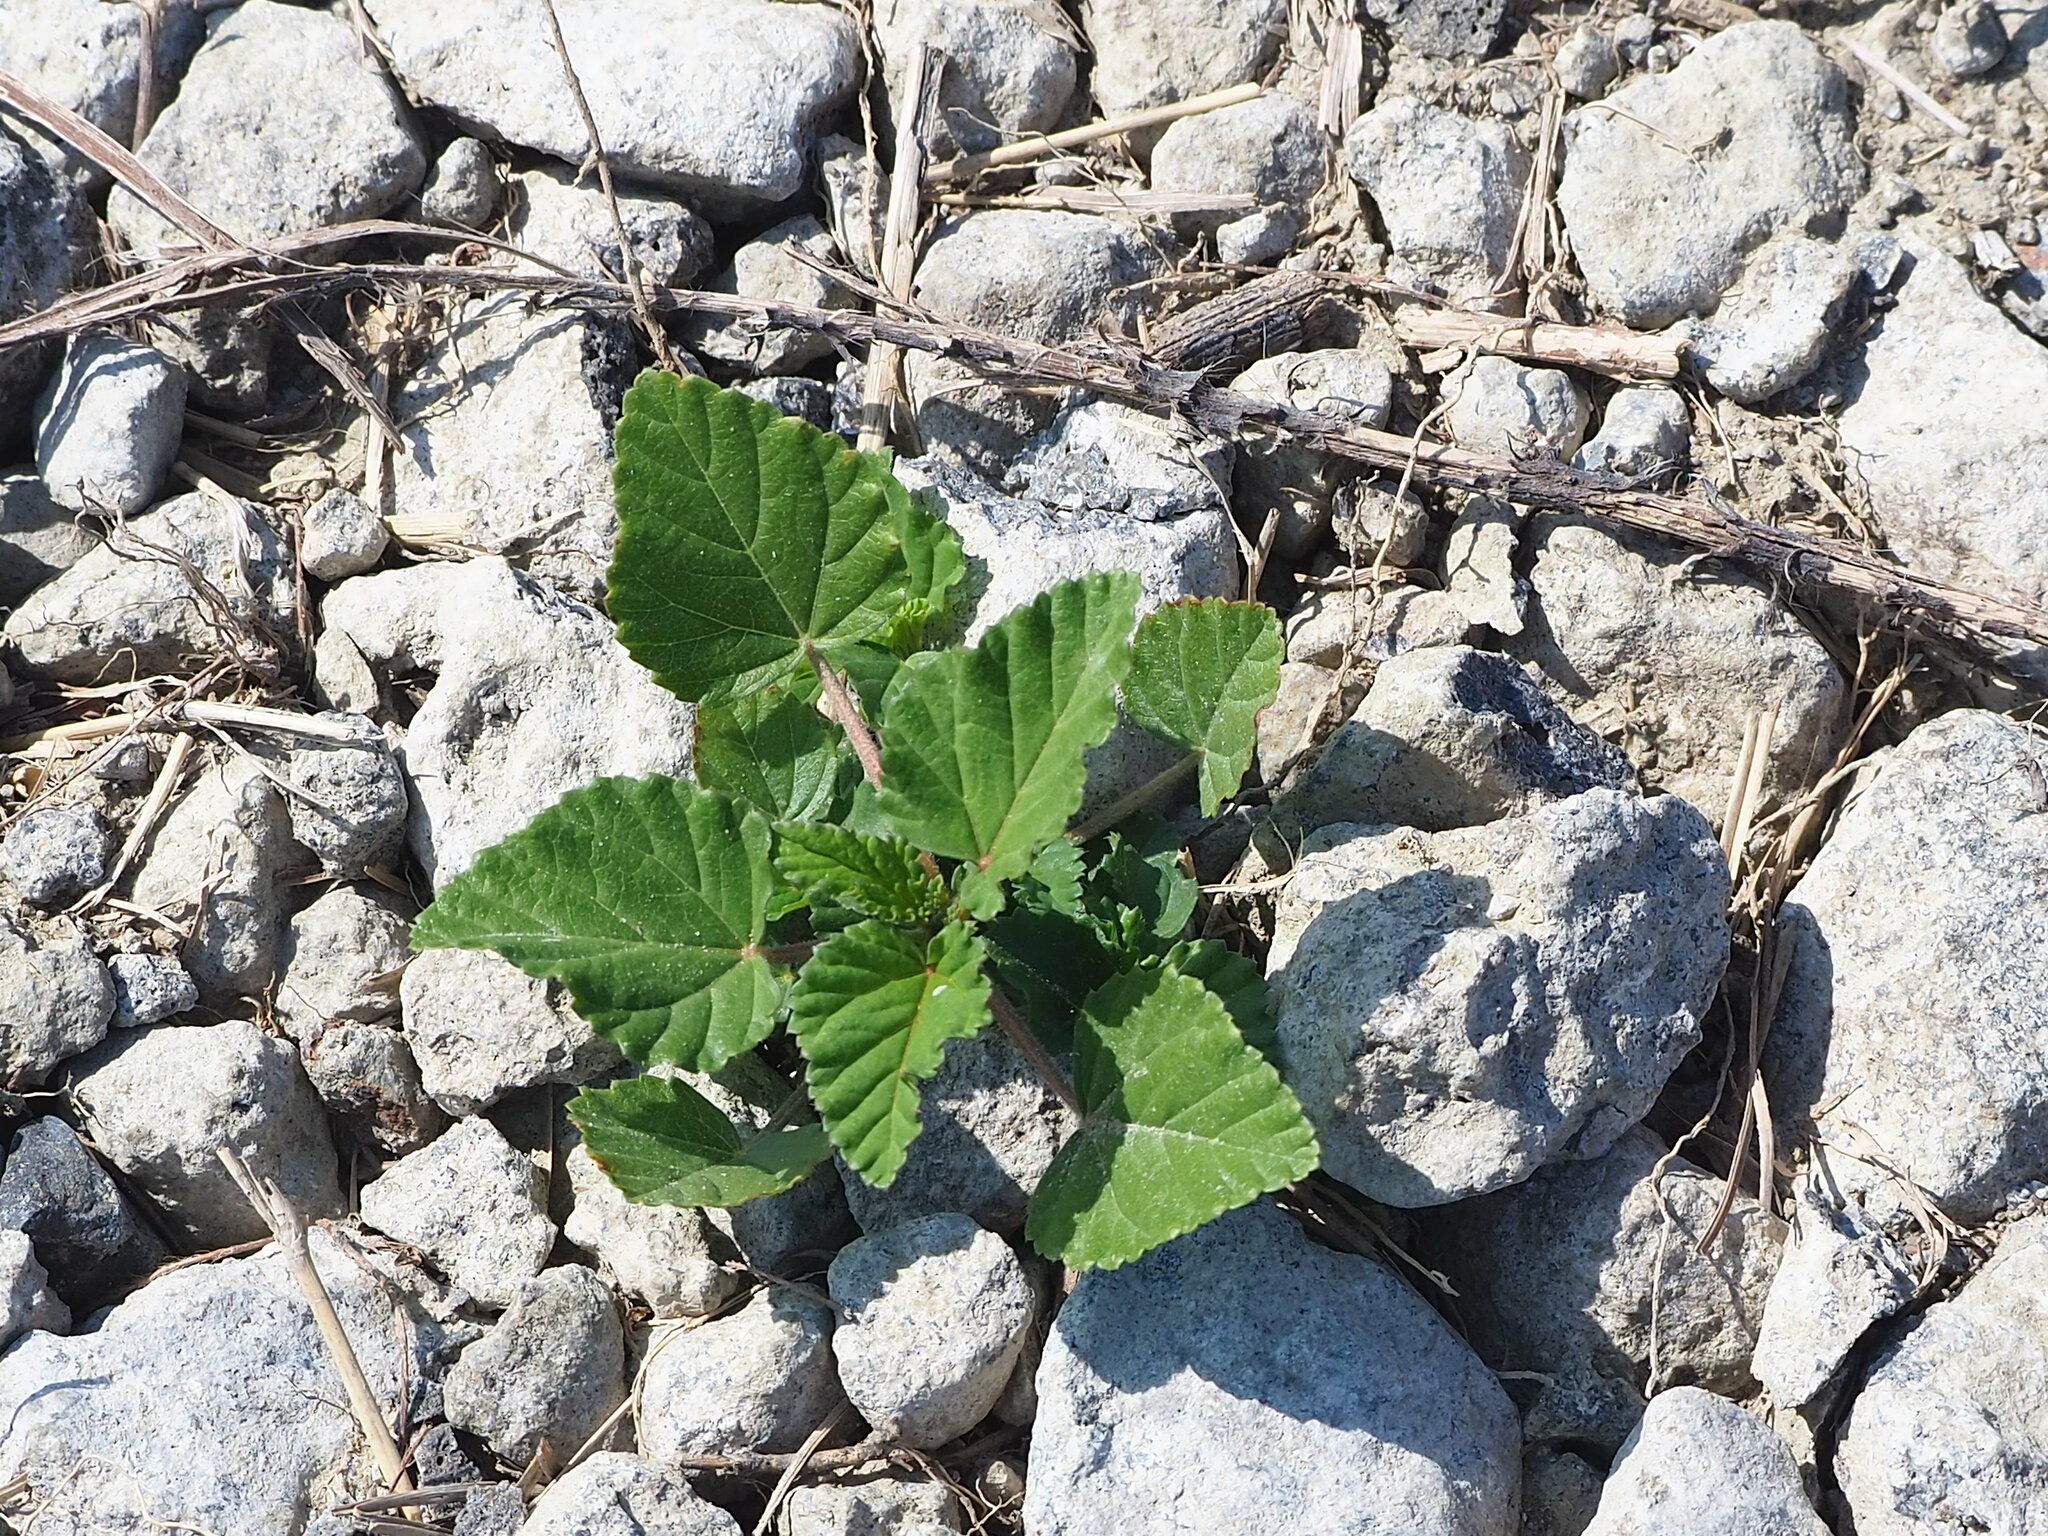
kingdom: Plantae
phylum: Tracheophyta
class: Magnoliopsida
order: Malvales
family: Malvaceae
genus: Malvastrum
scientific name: Malvastrum coromandelianum
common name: Threelobe false mallow
